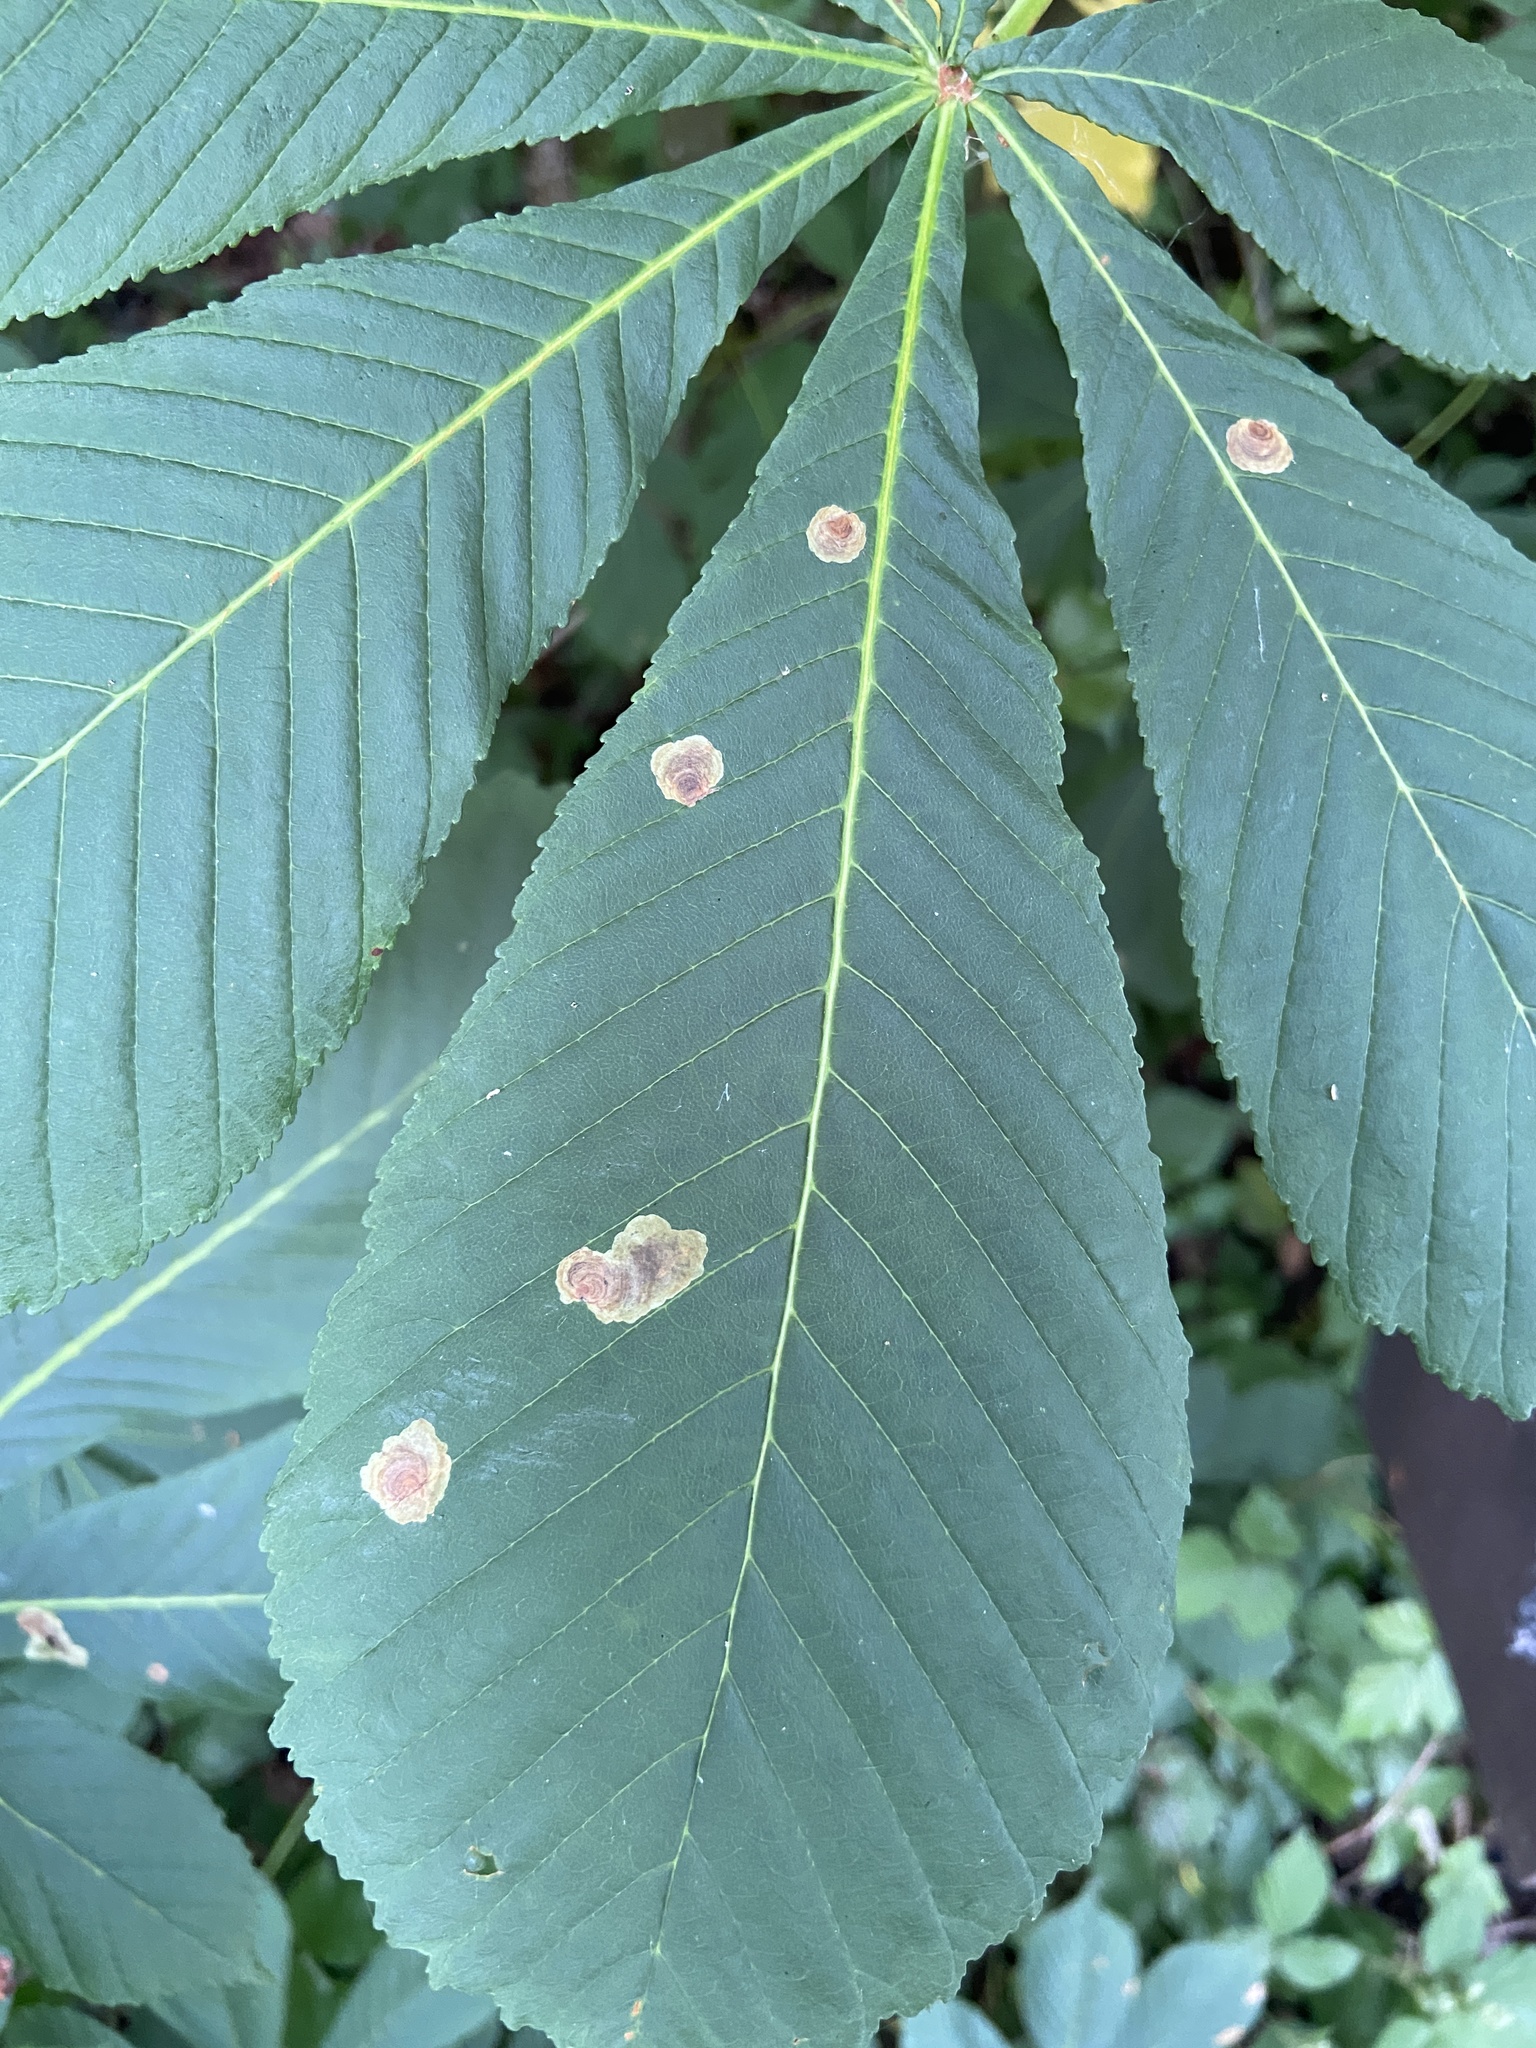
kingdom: Animalia
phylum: Arthropoda
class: Insecta
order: Lepidoptera
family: Gracillariidae
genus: Cameraria
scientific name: Cameraria ohridella
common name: Horse-chestnut leaf-miner
